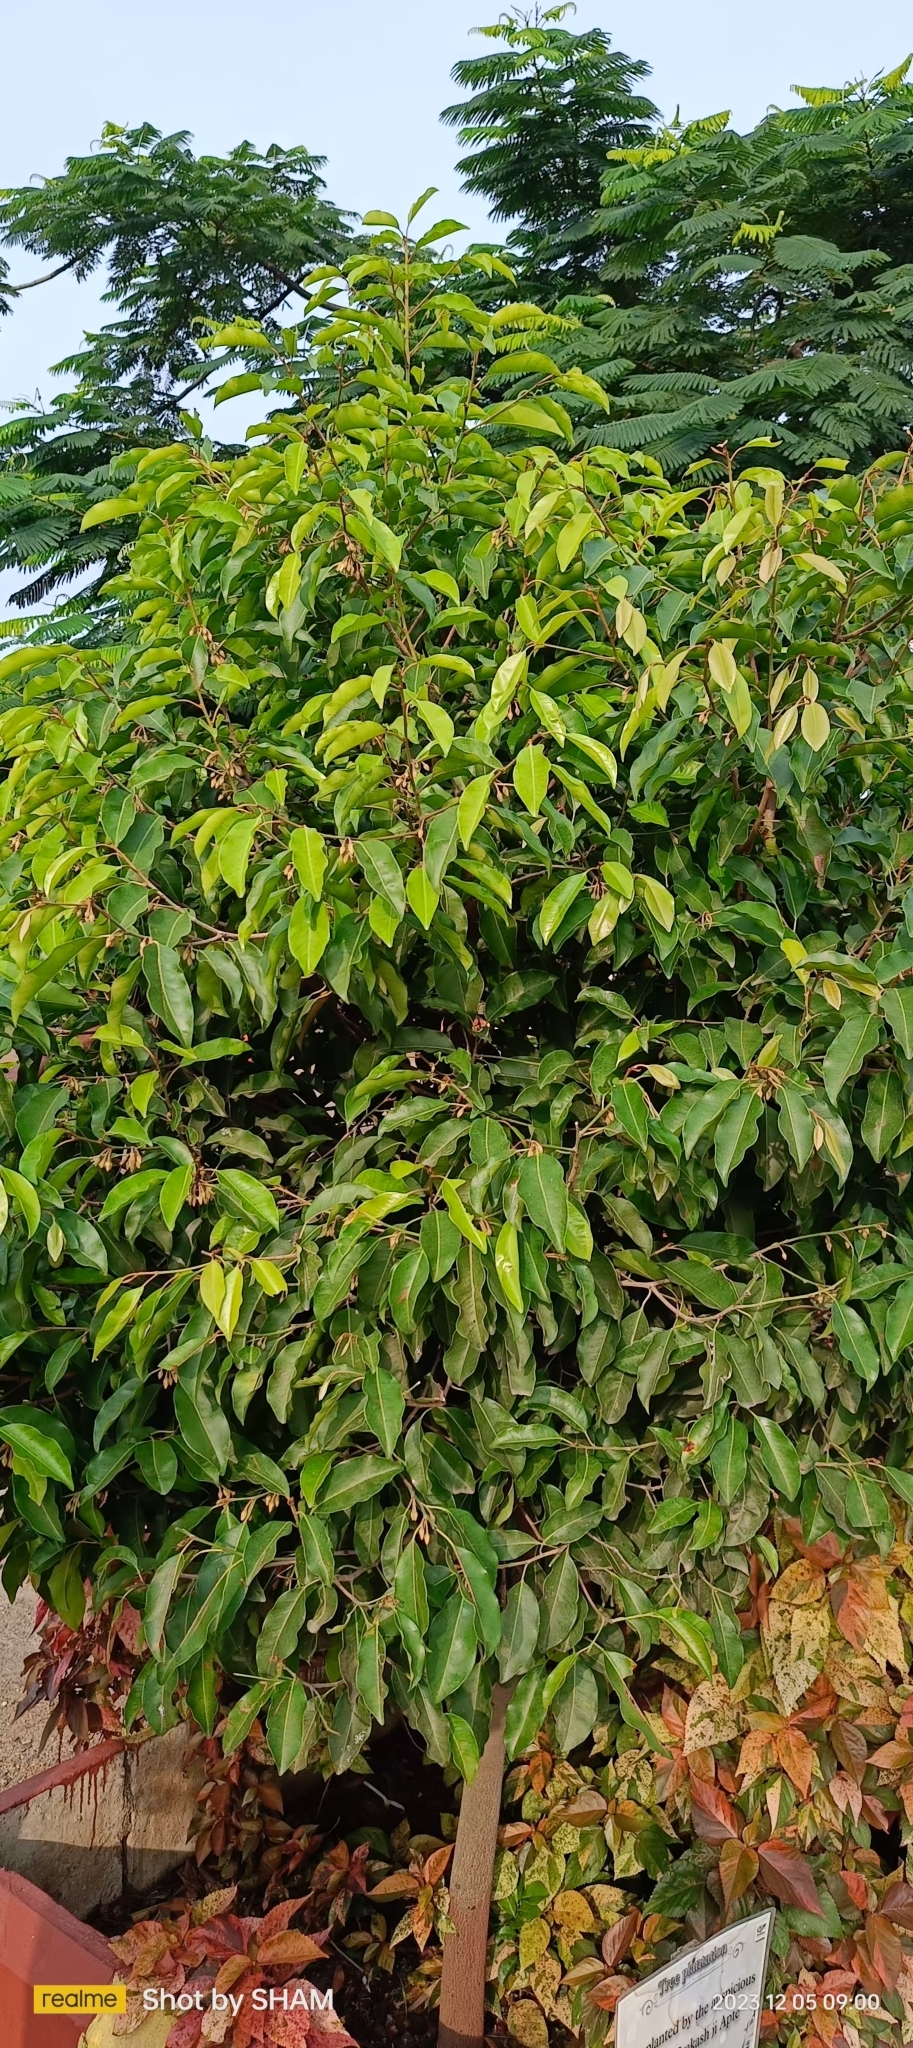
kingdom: Plantae
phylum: Tracheophyta
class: Magnoliopsida
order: Ericales
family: Sapotaceae
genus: Mimusops
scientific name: Mimusops elengi
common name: Spanish cherry
